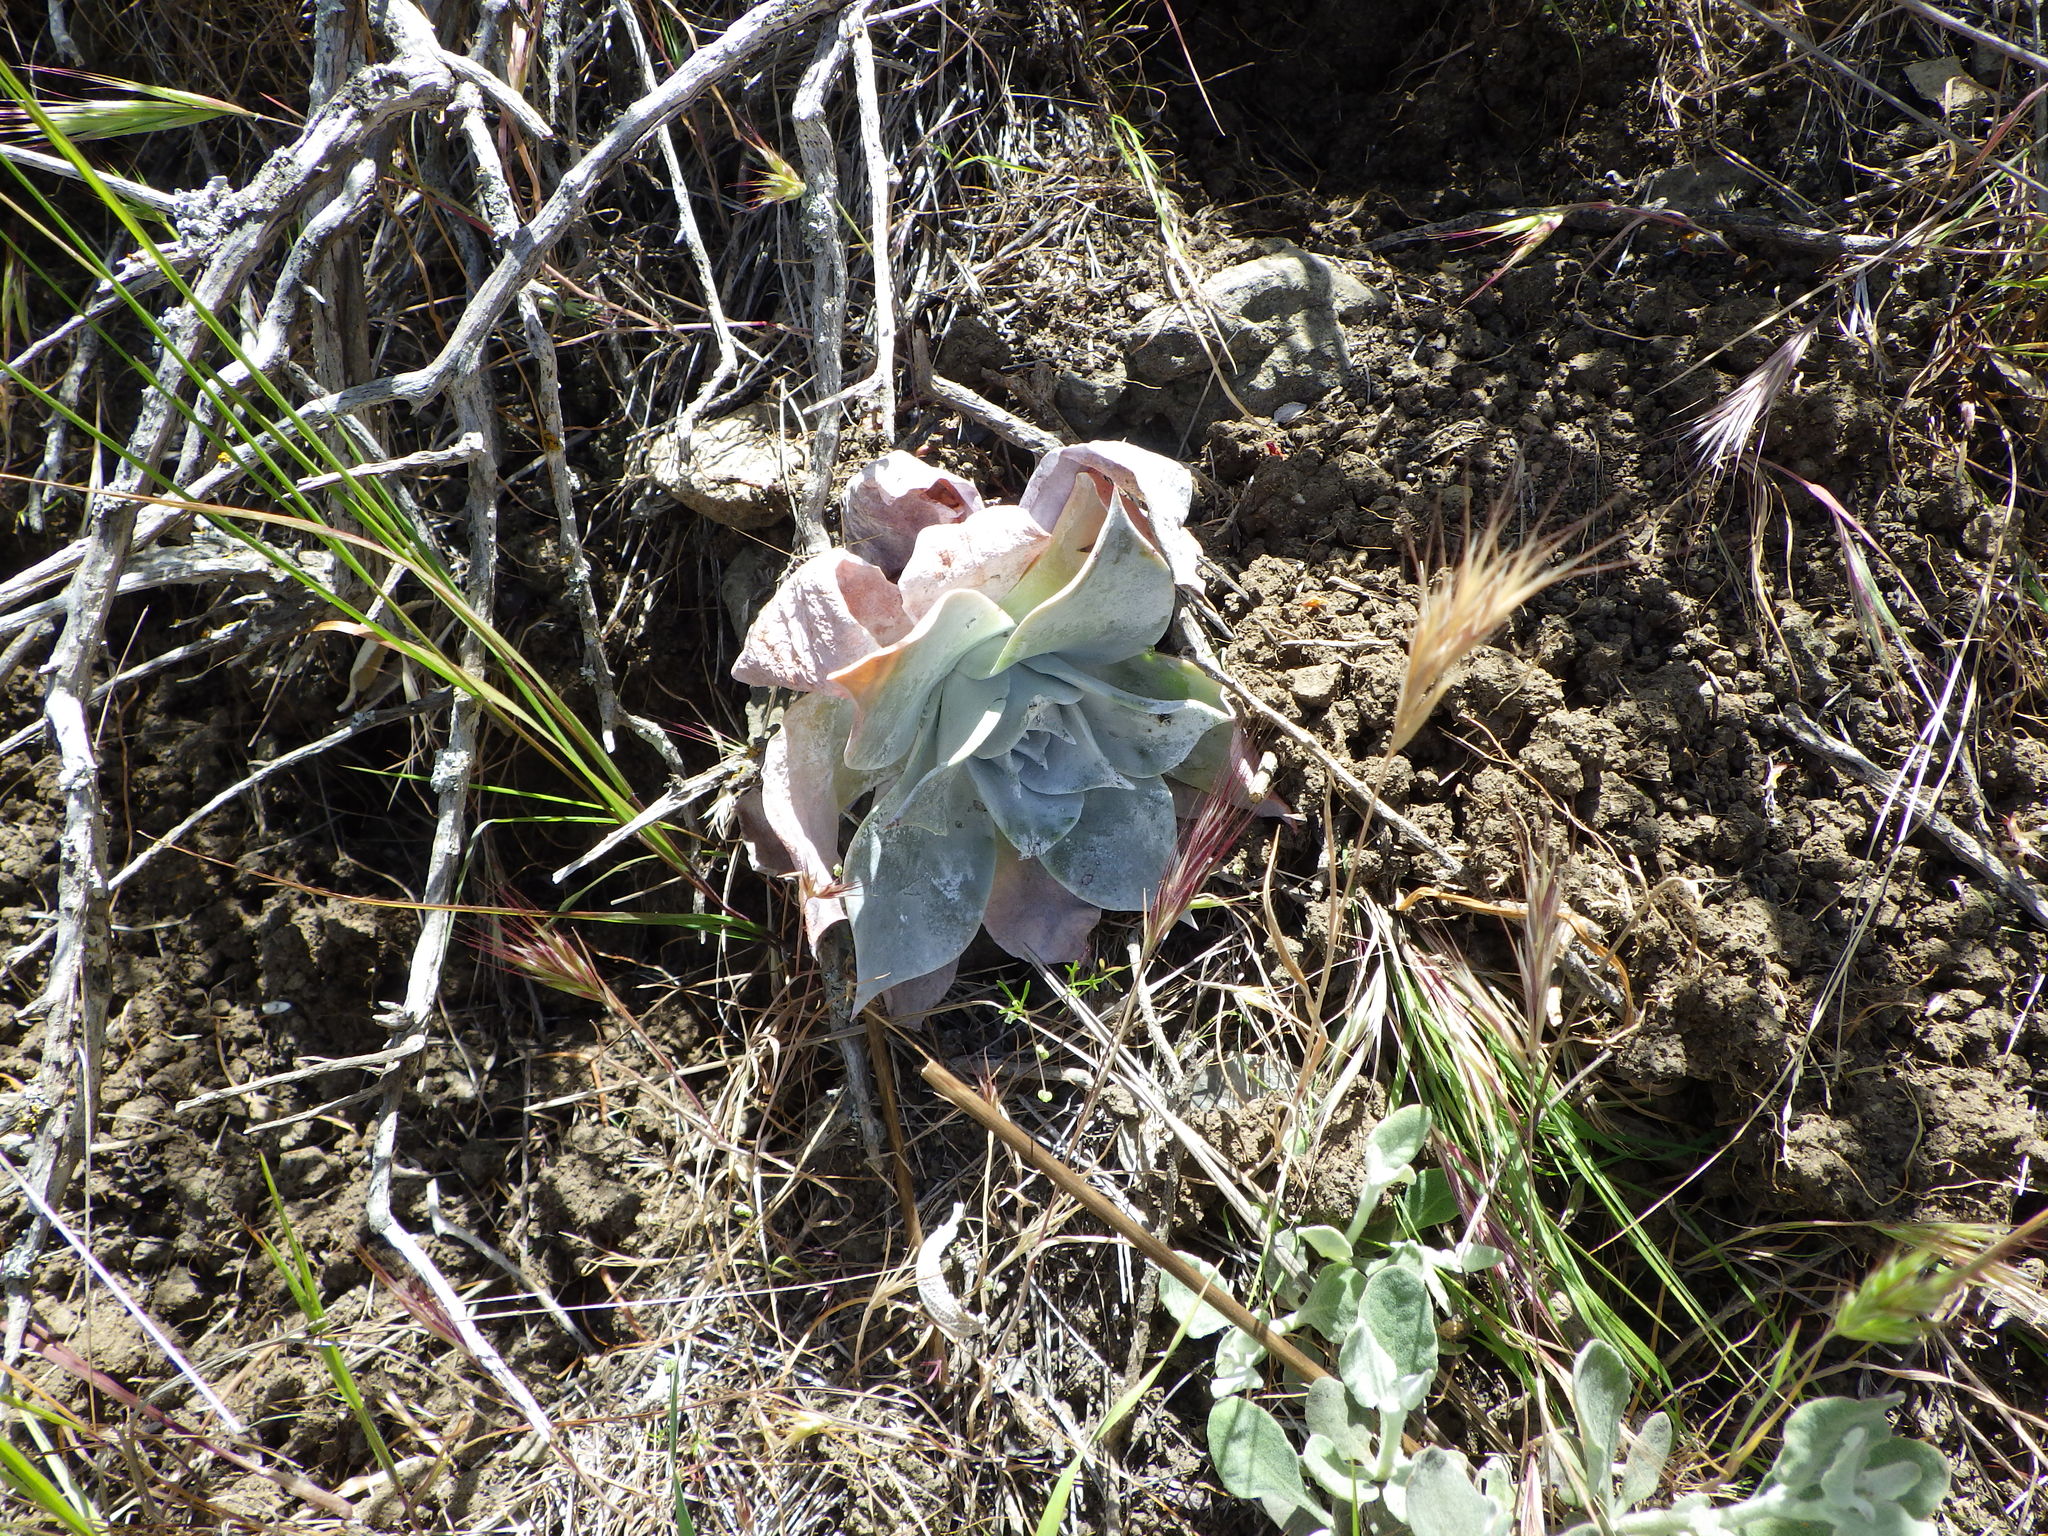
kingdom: Plantae
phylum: Tracheophyta
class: Magnoliopsida
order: Saxifragales
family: Crassulaceae
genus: Dudleya
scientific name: Dudleya pulverulenta
